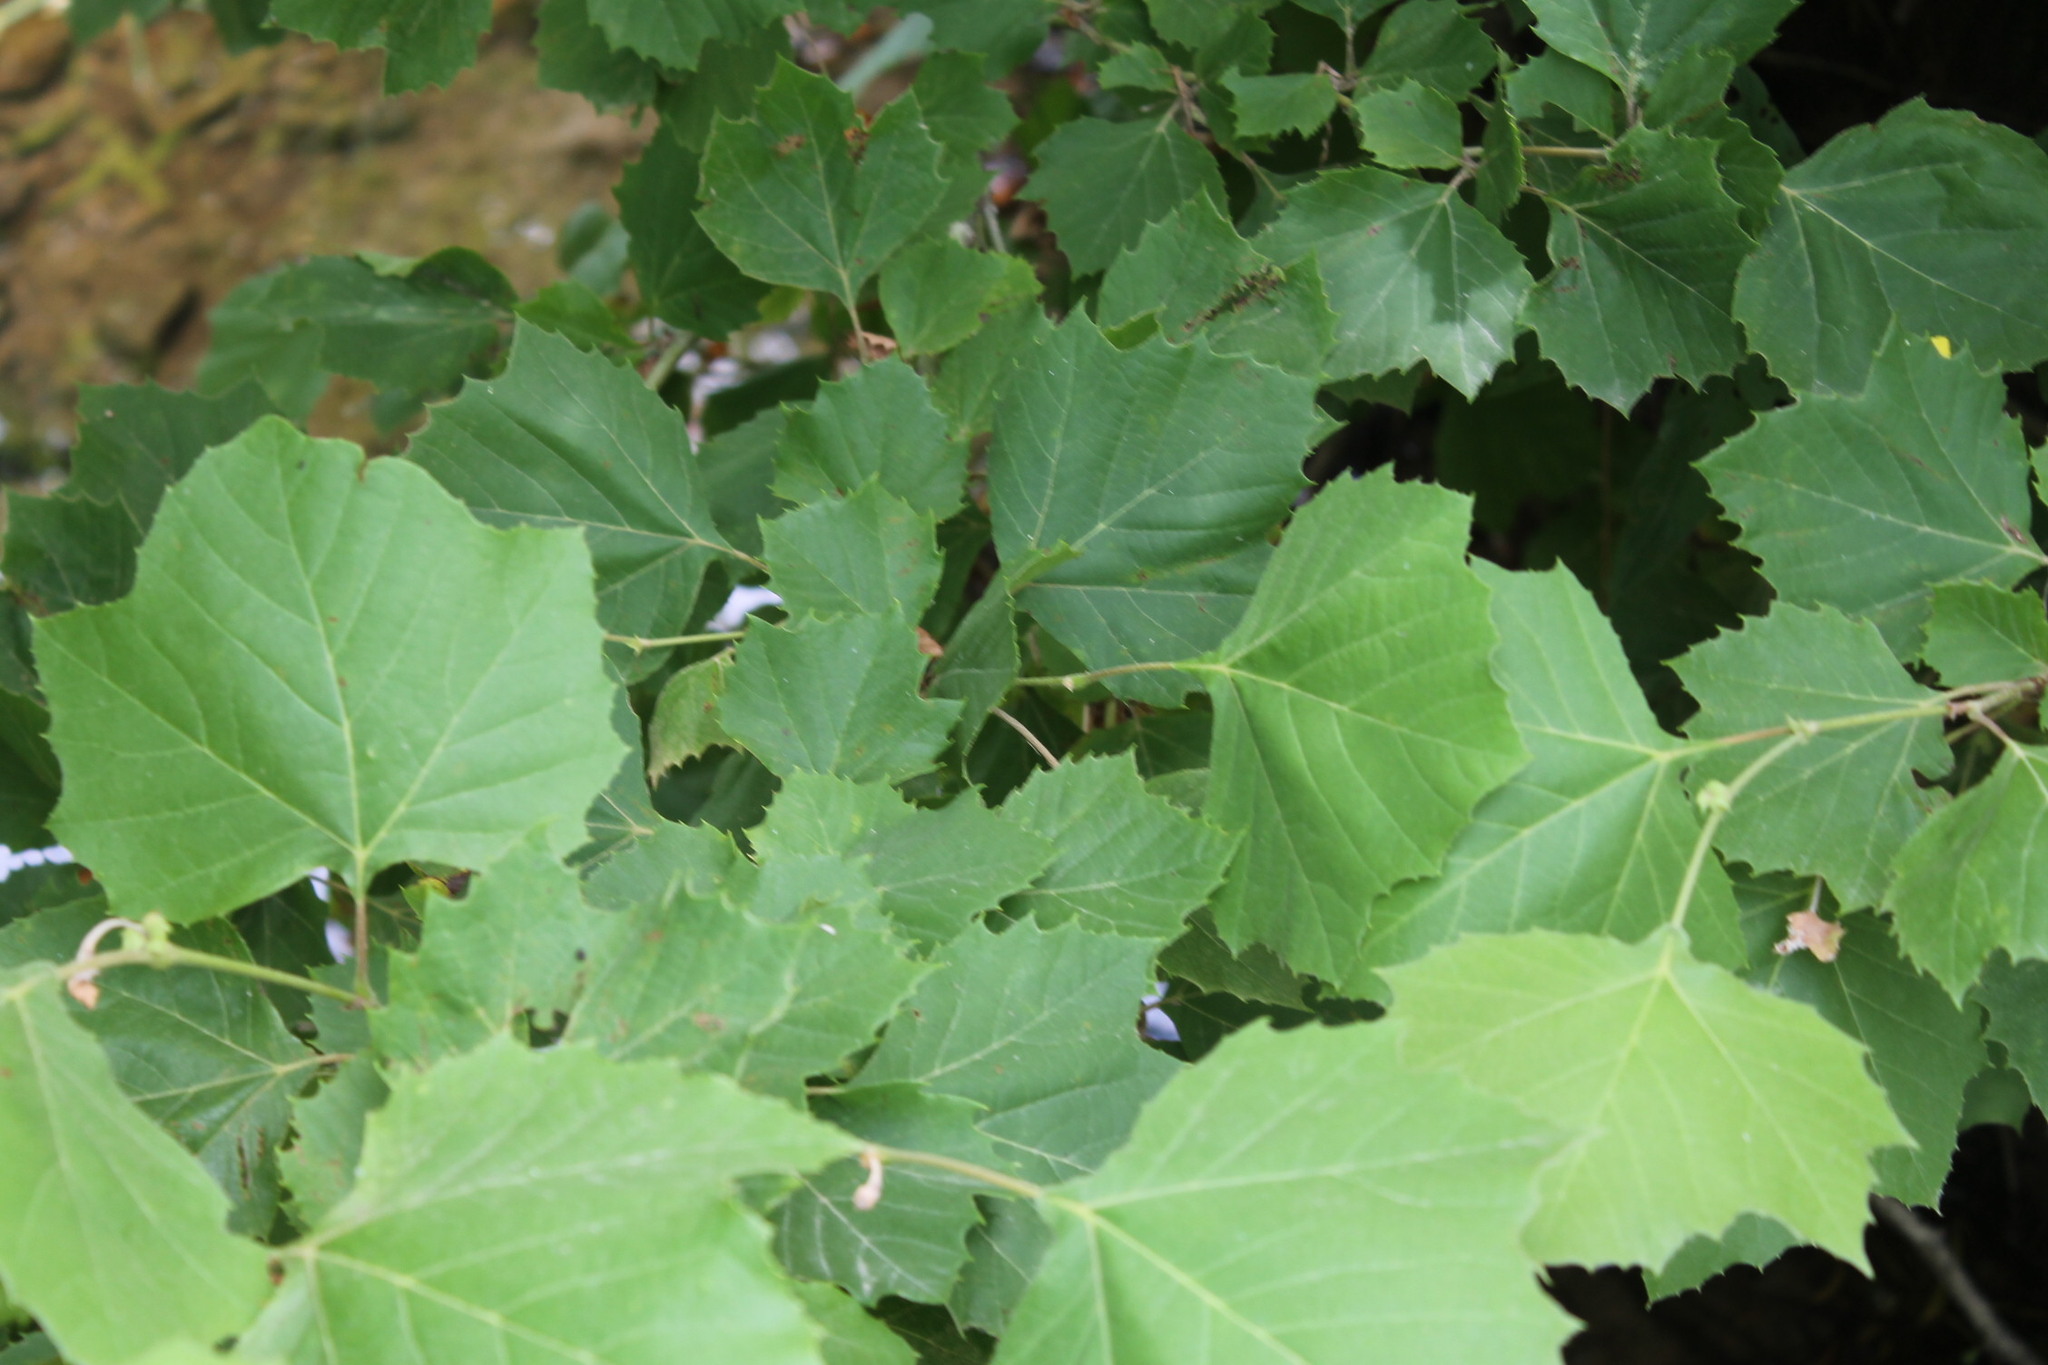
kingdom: Plantae
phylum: Tracheophyta
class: Magnoliopsida
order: Proteales
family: Platanaceae
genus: Platanus
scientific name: Platanus occidentalis
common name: American sycamore
